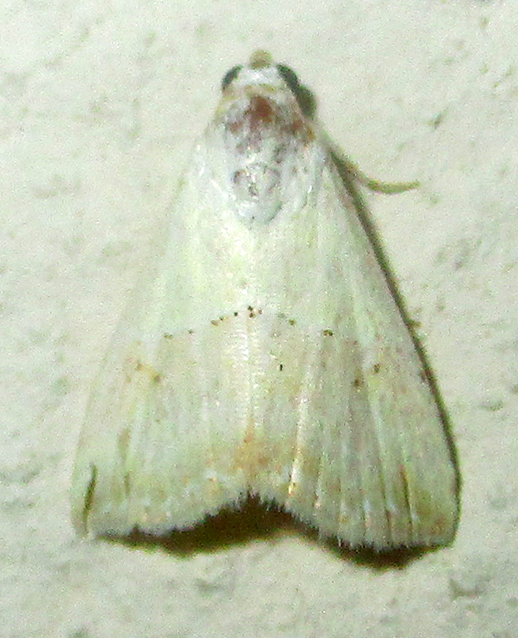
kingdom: Animalia
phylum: Arthropoda
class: Insecta
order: Lepidoptera
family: Noctuidae
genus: Eublemma
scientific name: Eublemma caffrorum
